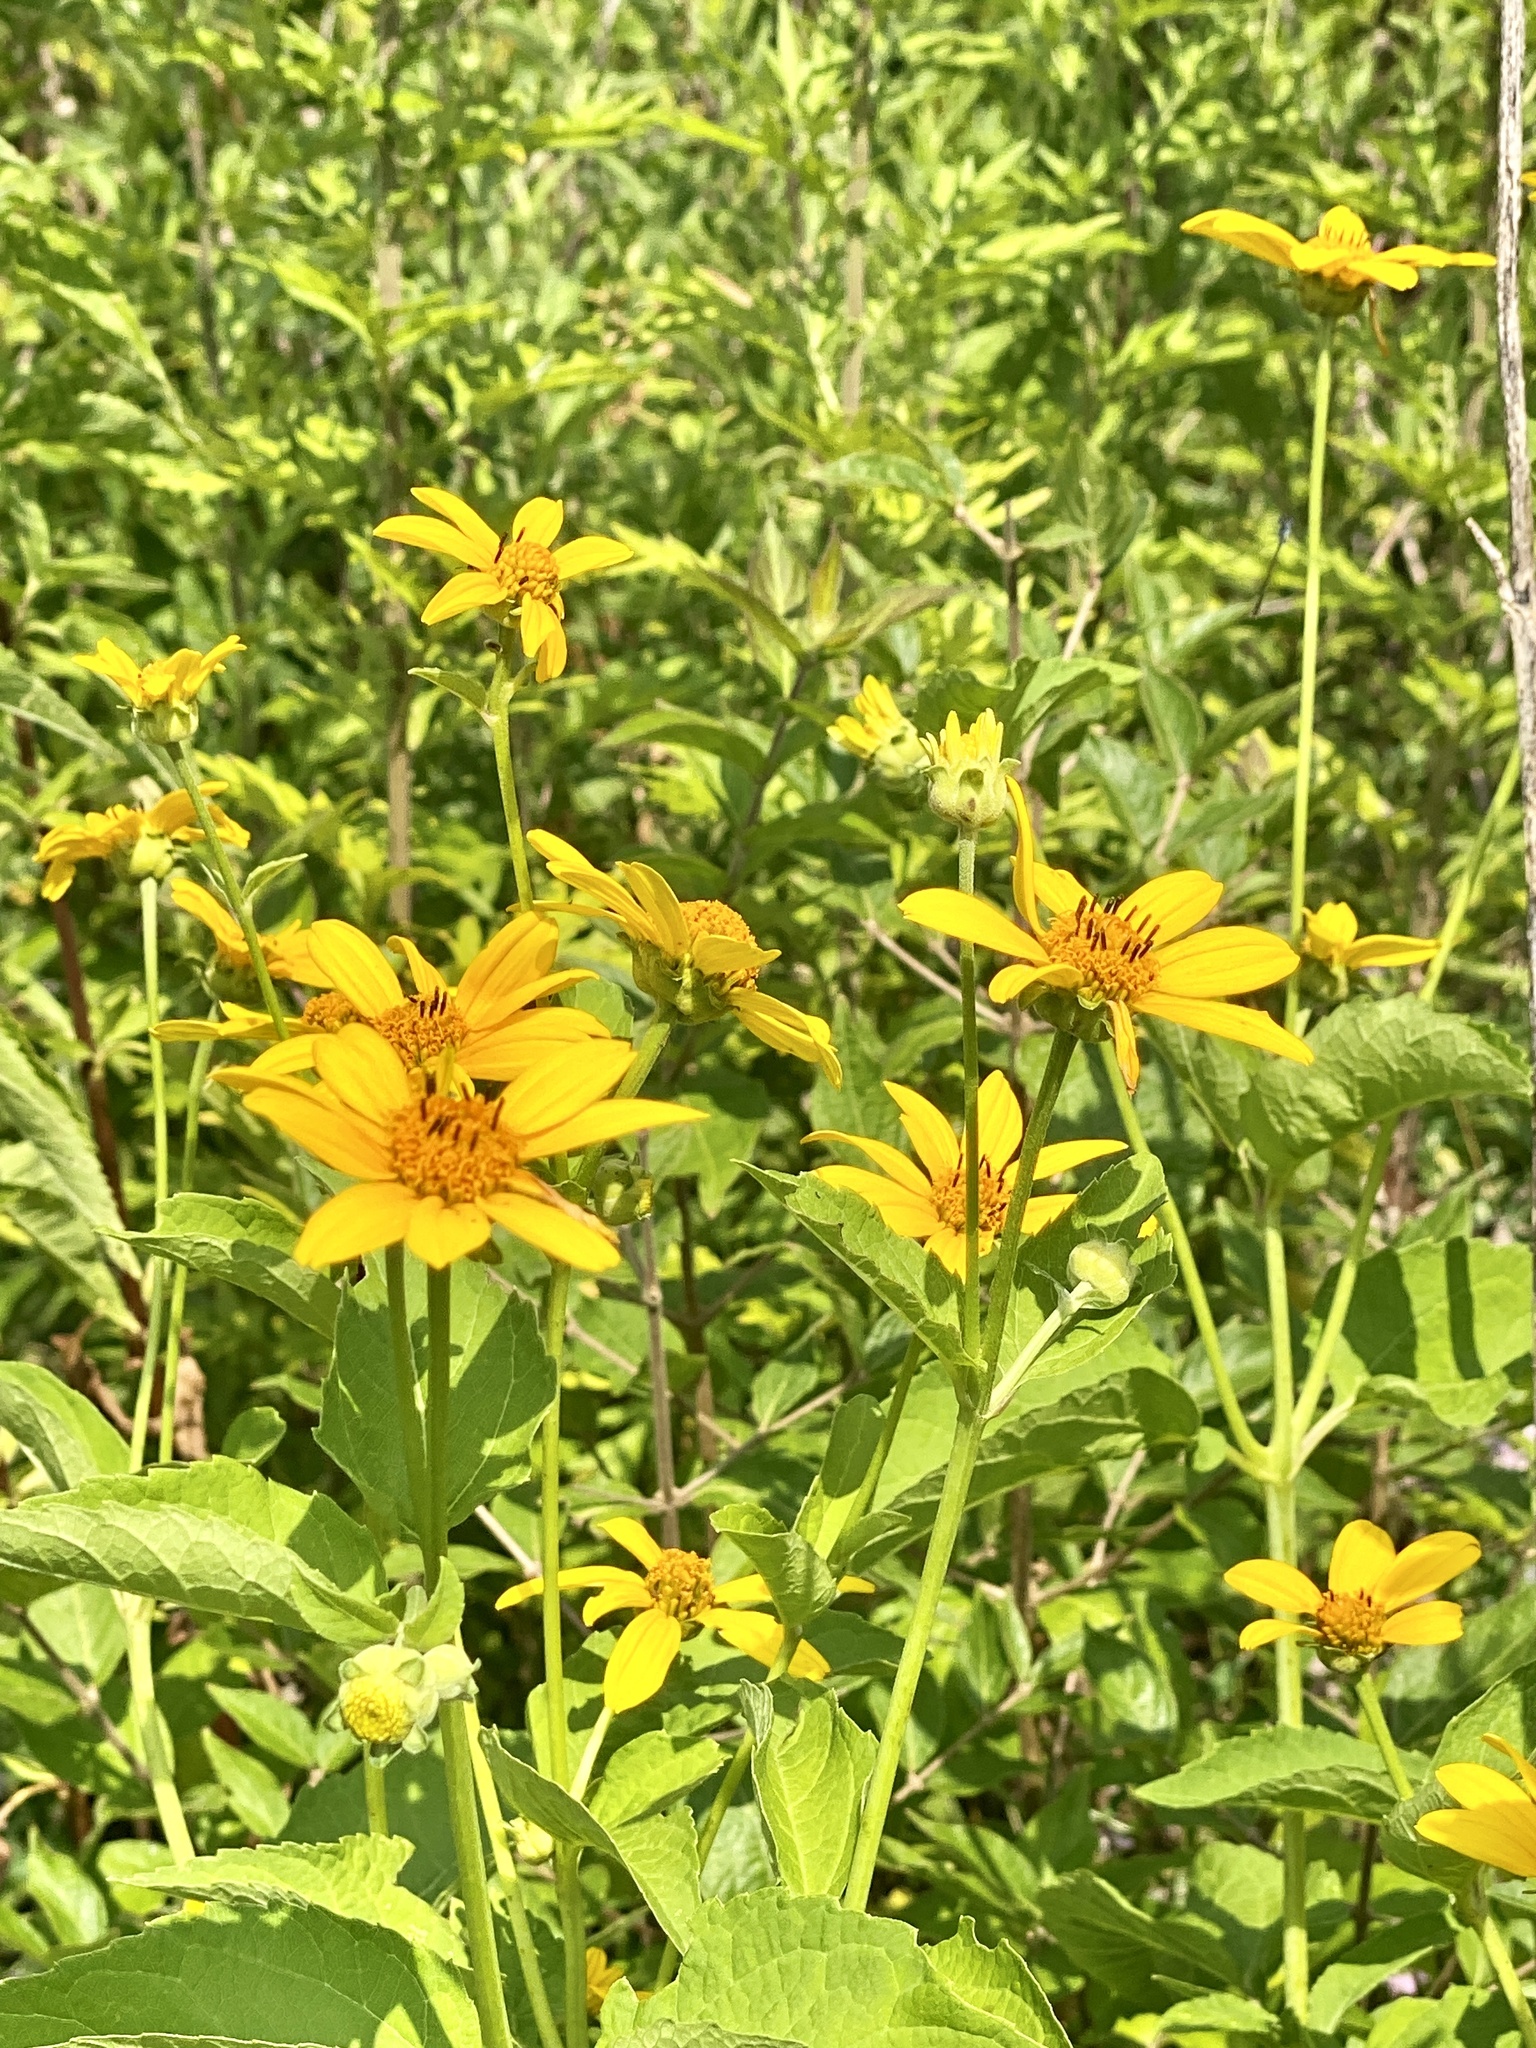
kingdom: Plantae
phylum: Tracheophyta
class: Magnoliopsida
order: Asterales
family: Asteraceae
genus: Heliopsis
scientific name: Heliopsis helianthoides
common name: False sunflower
